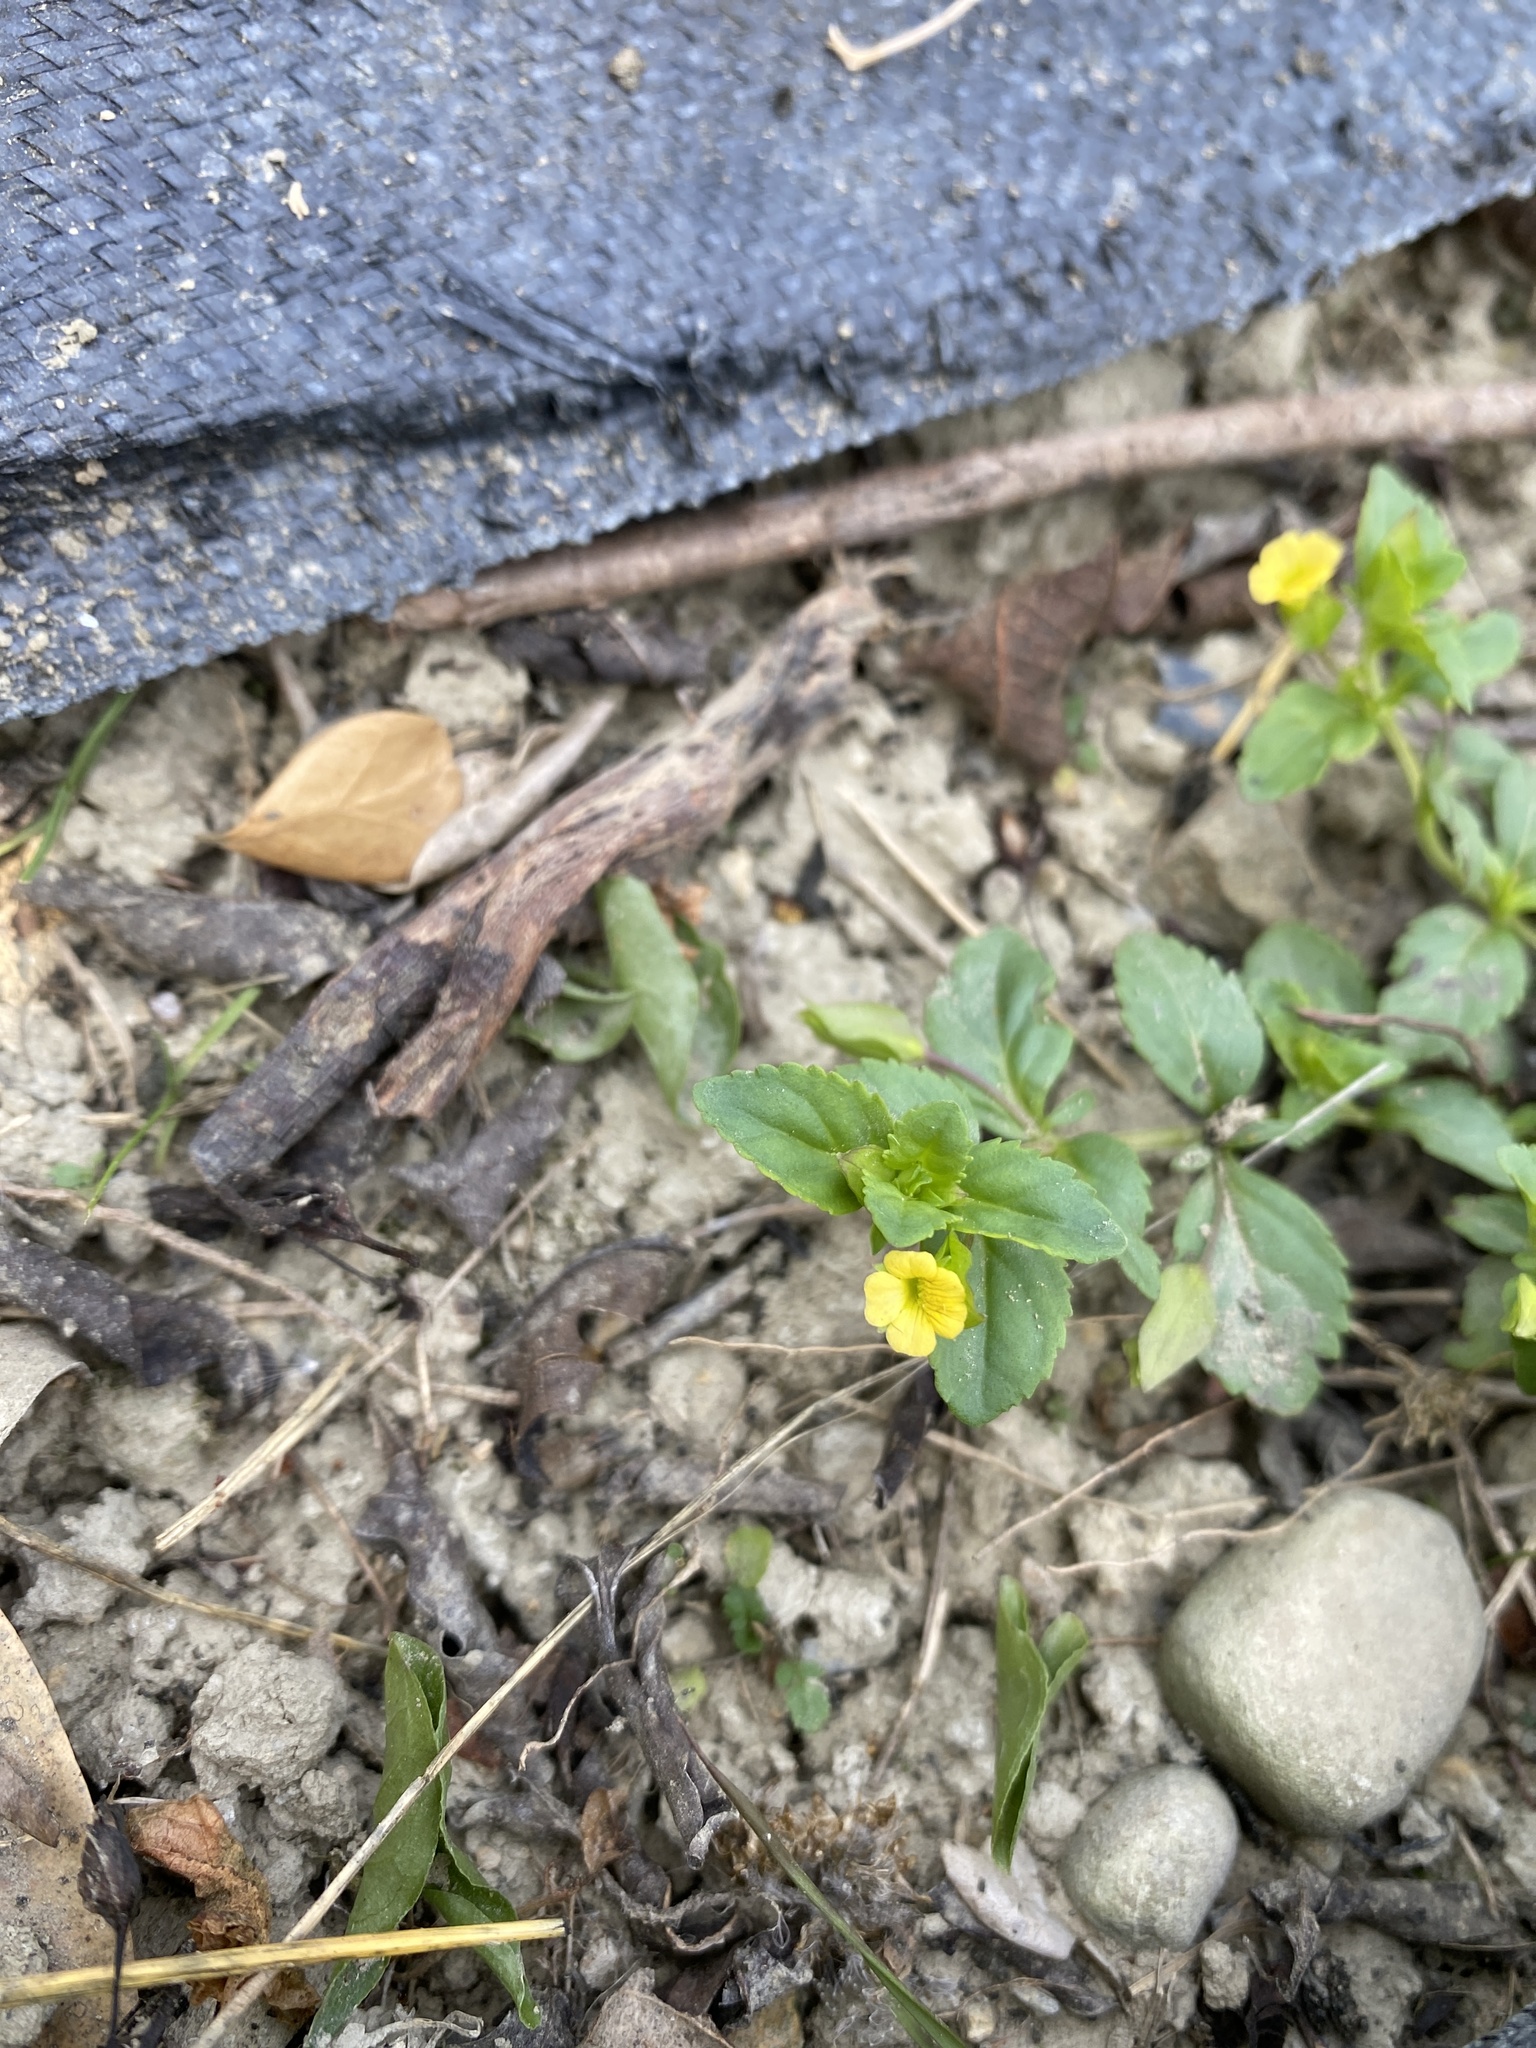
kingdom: Plantae
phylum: Tracheophyta
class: Magnoliopsida
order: Lamiales
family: Plantaginaceae
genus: Mecardonia
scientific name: Mecardonia procumbens
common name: Baby jump-up
